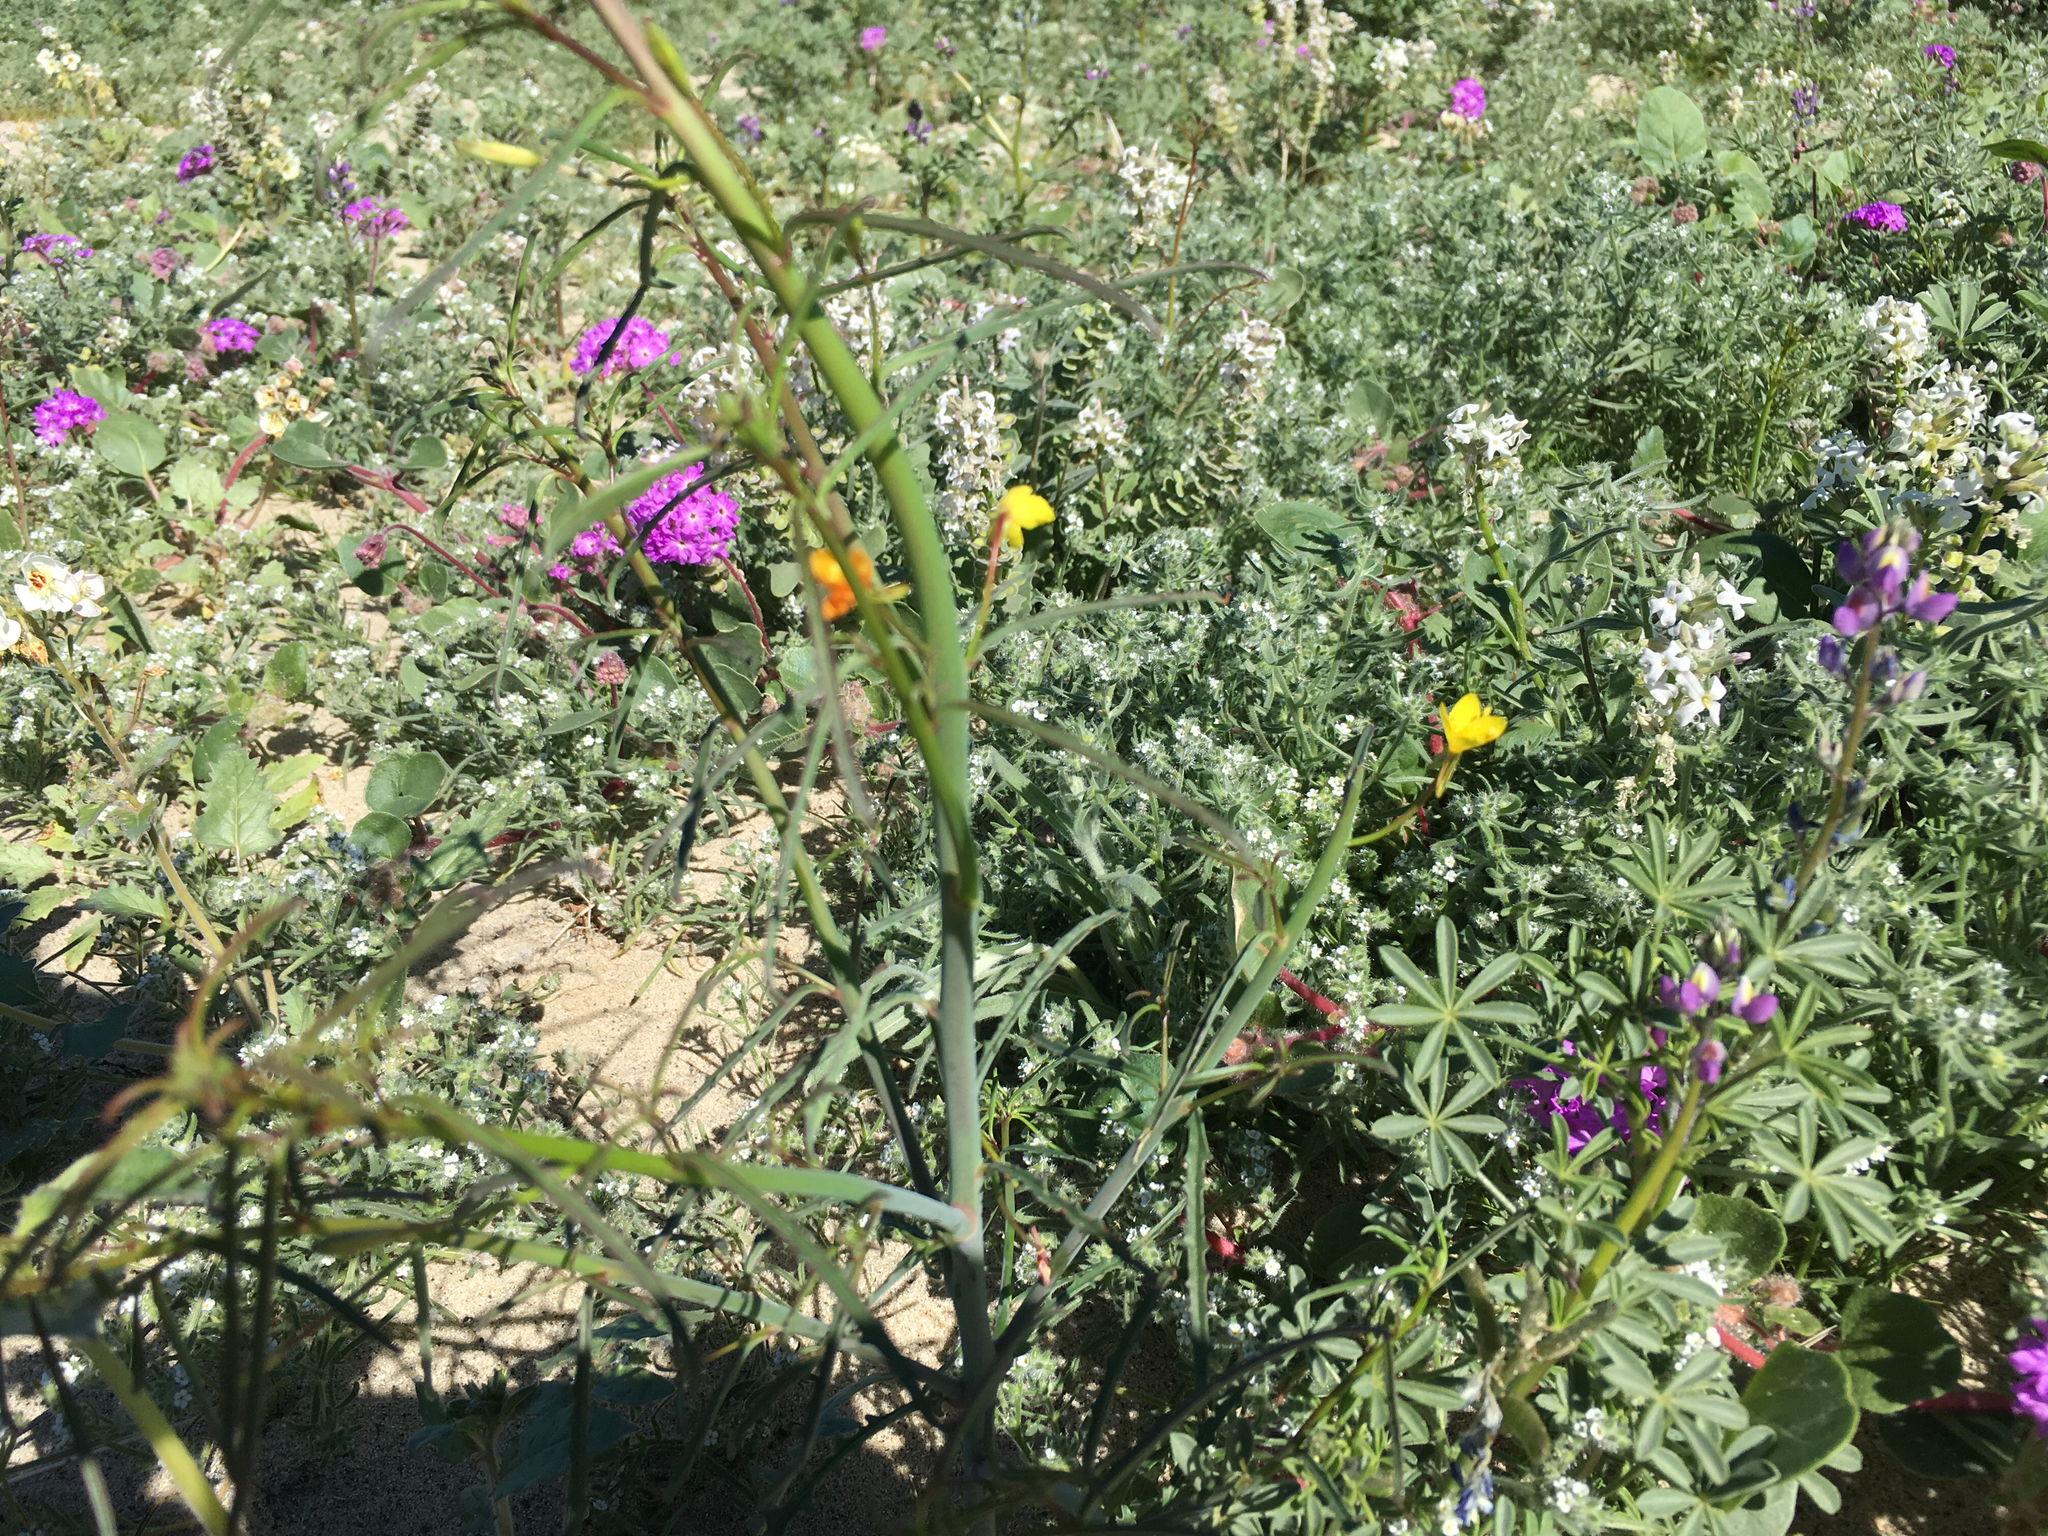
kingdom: Plantae
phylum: Tracheophyta
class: Magnoliopsida
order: Myrtales
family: Onagraceae
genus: Eulobus
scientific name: Eulobus californicus
